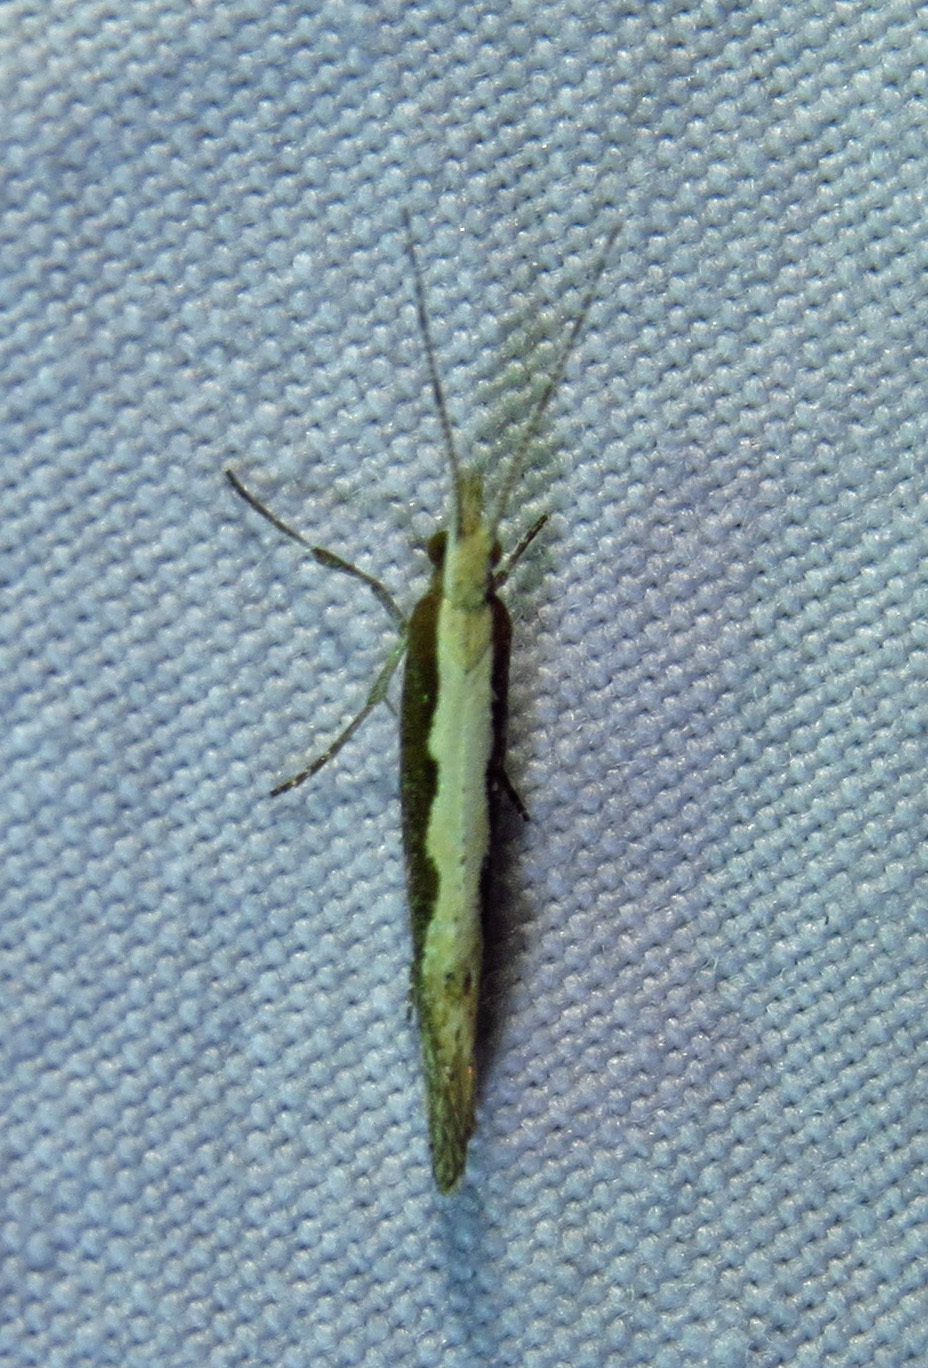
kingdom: Animalia
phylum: Arthropoda
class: Insecta
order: Lepidoptera
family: Plutellidae
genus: Plutella
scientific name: Plutella xylostella
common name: Diamond-back moth
